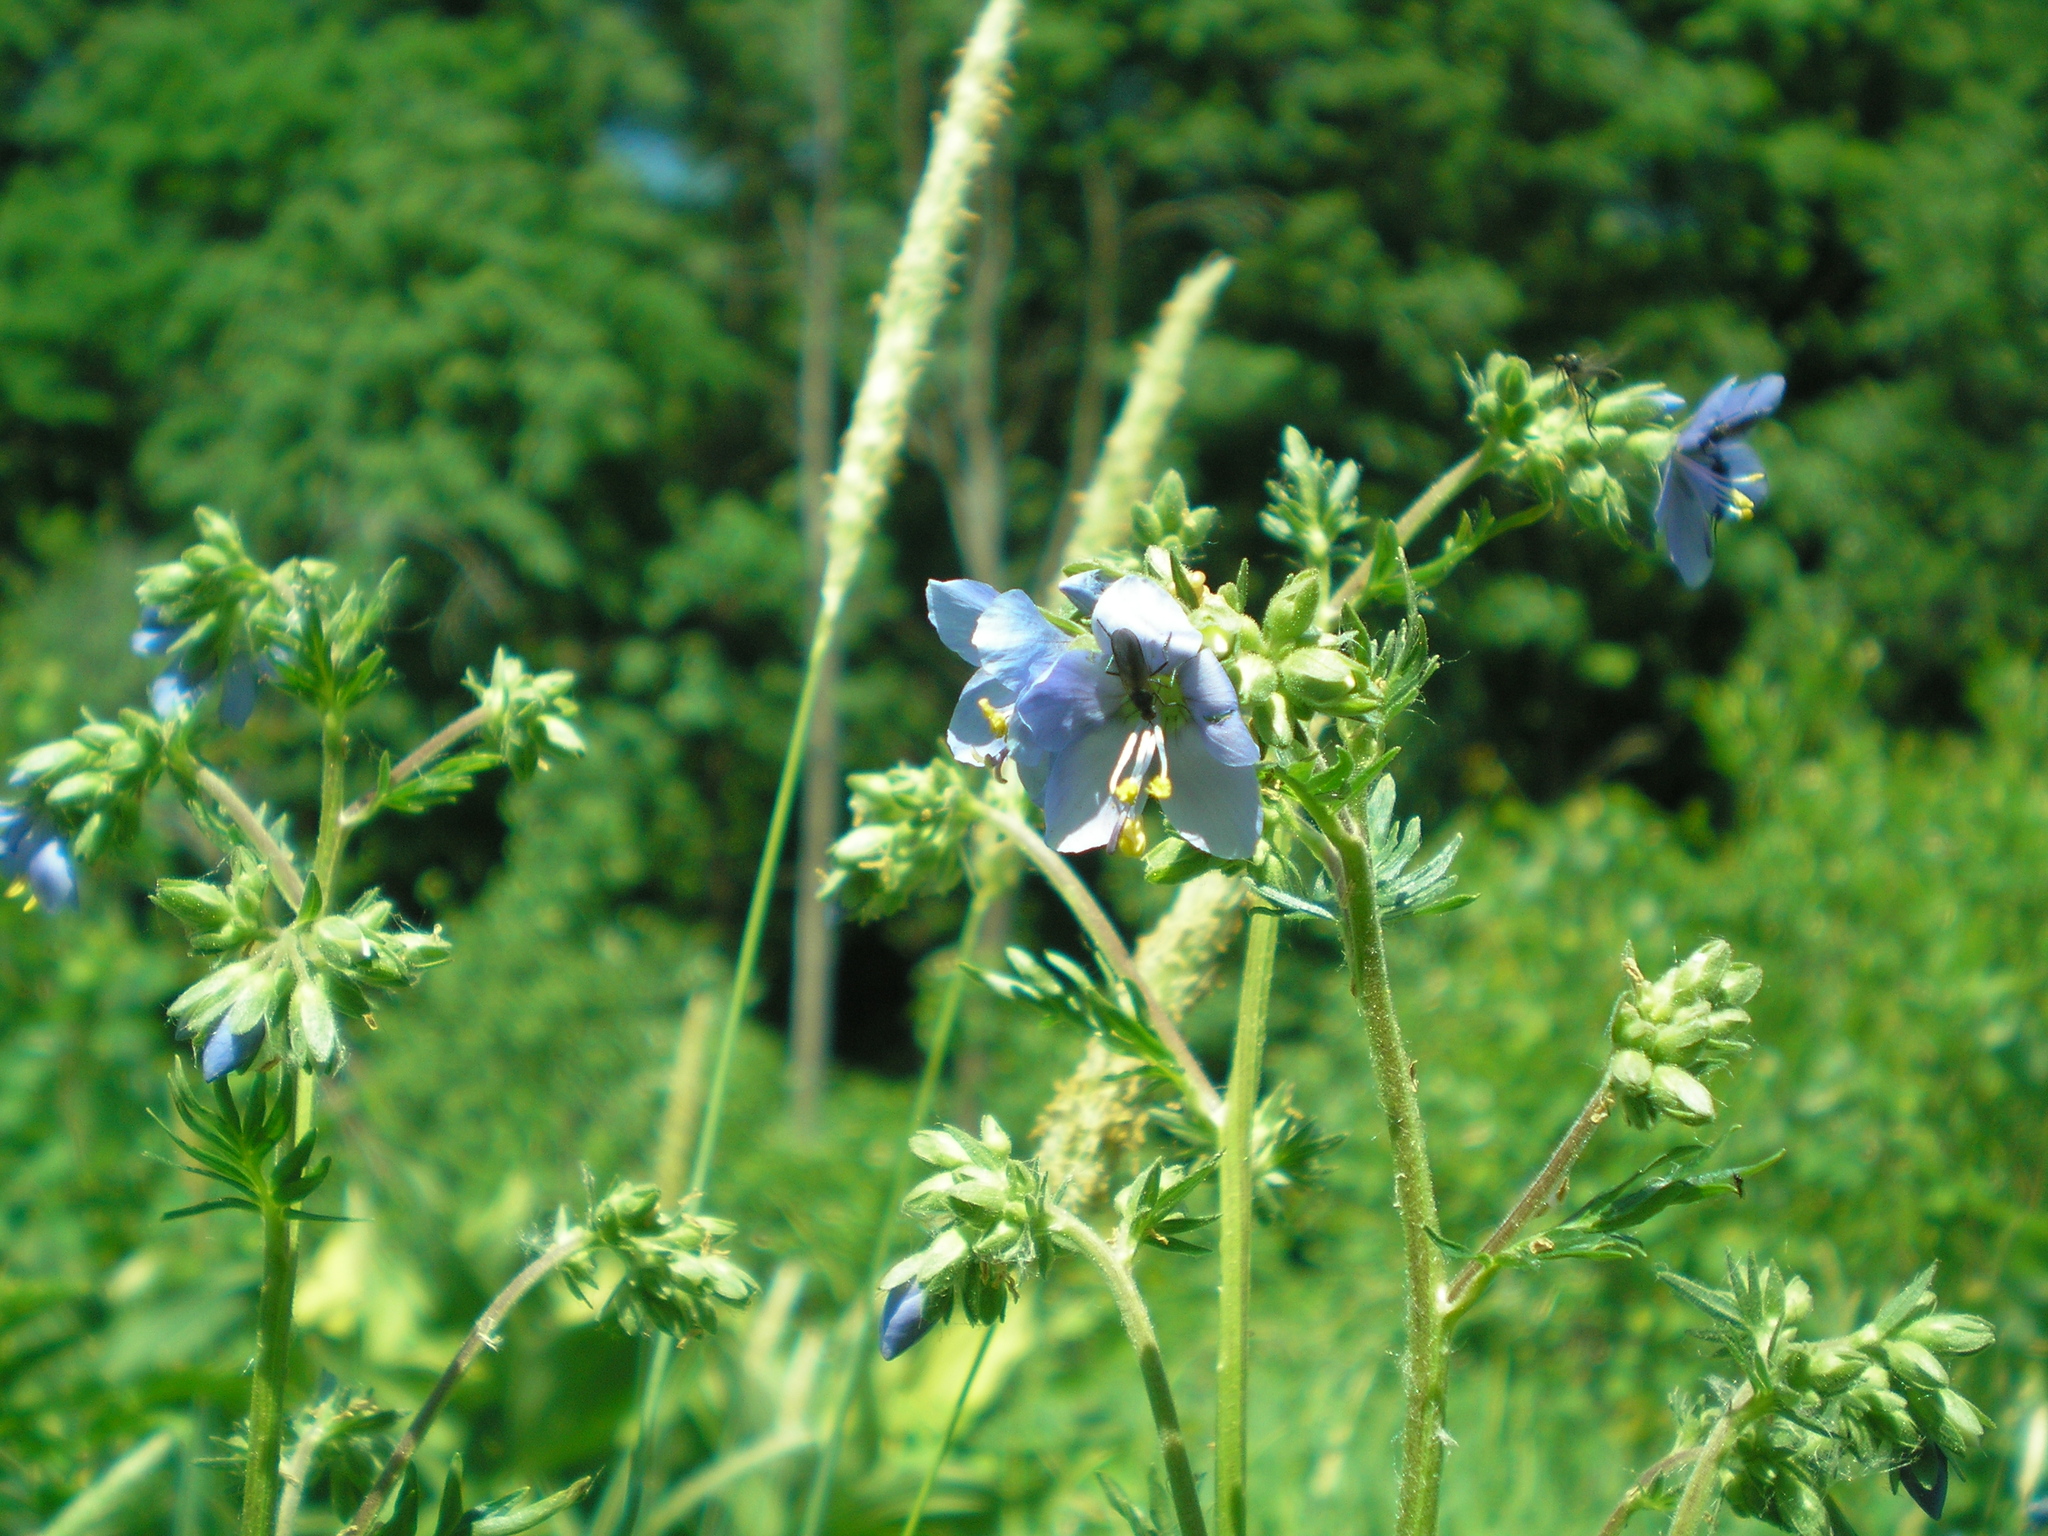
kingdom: Plantae
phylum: Tracheophyta
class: Magnoliopsida
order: Ericales
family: Polemoniaceae
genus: Polemonium
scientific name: Polemonium caeruleum
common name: Jacob's-ladder
